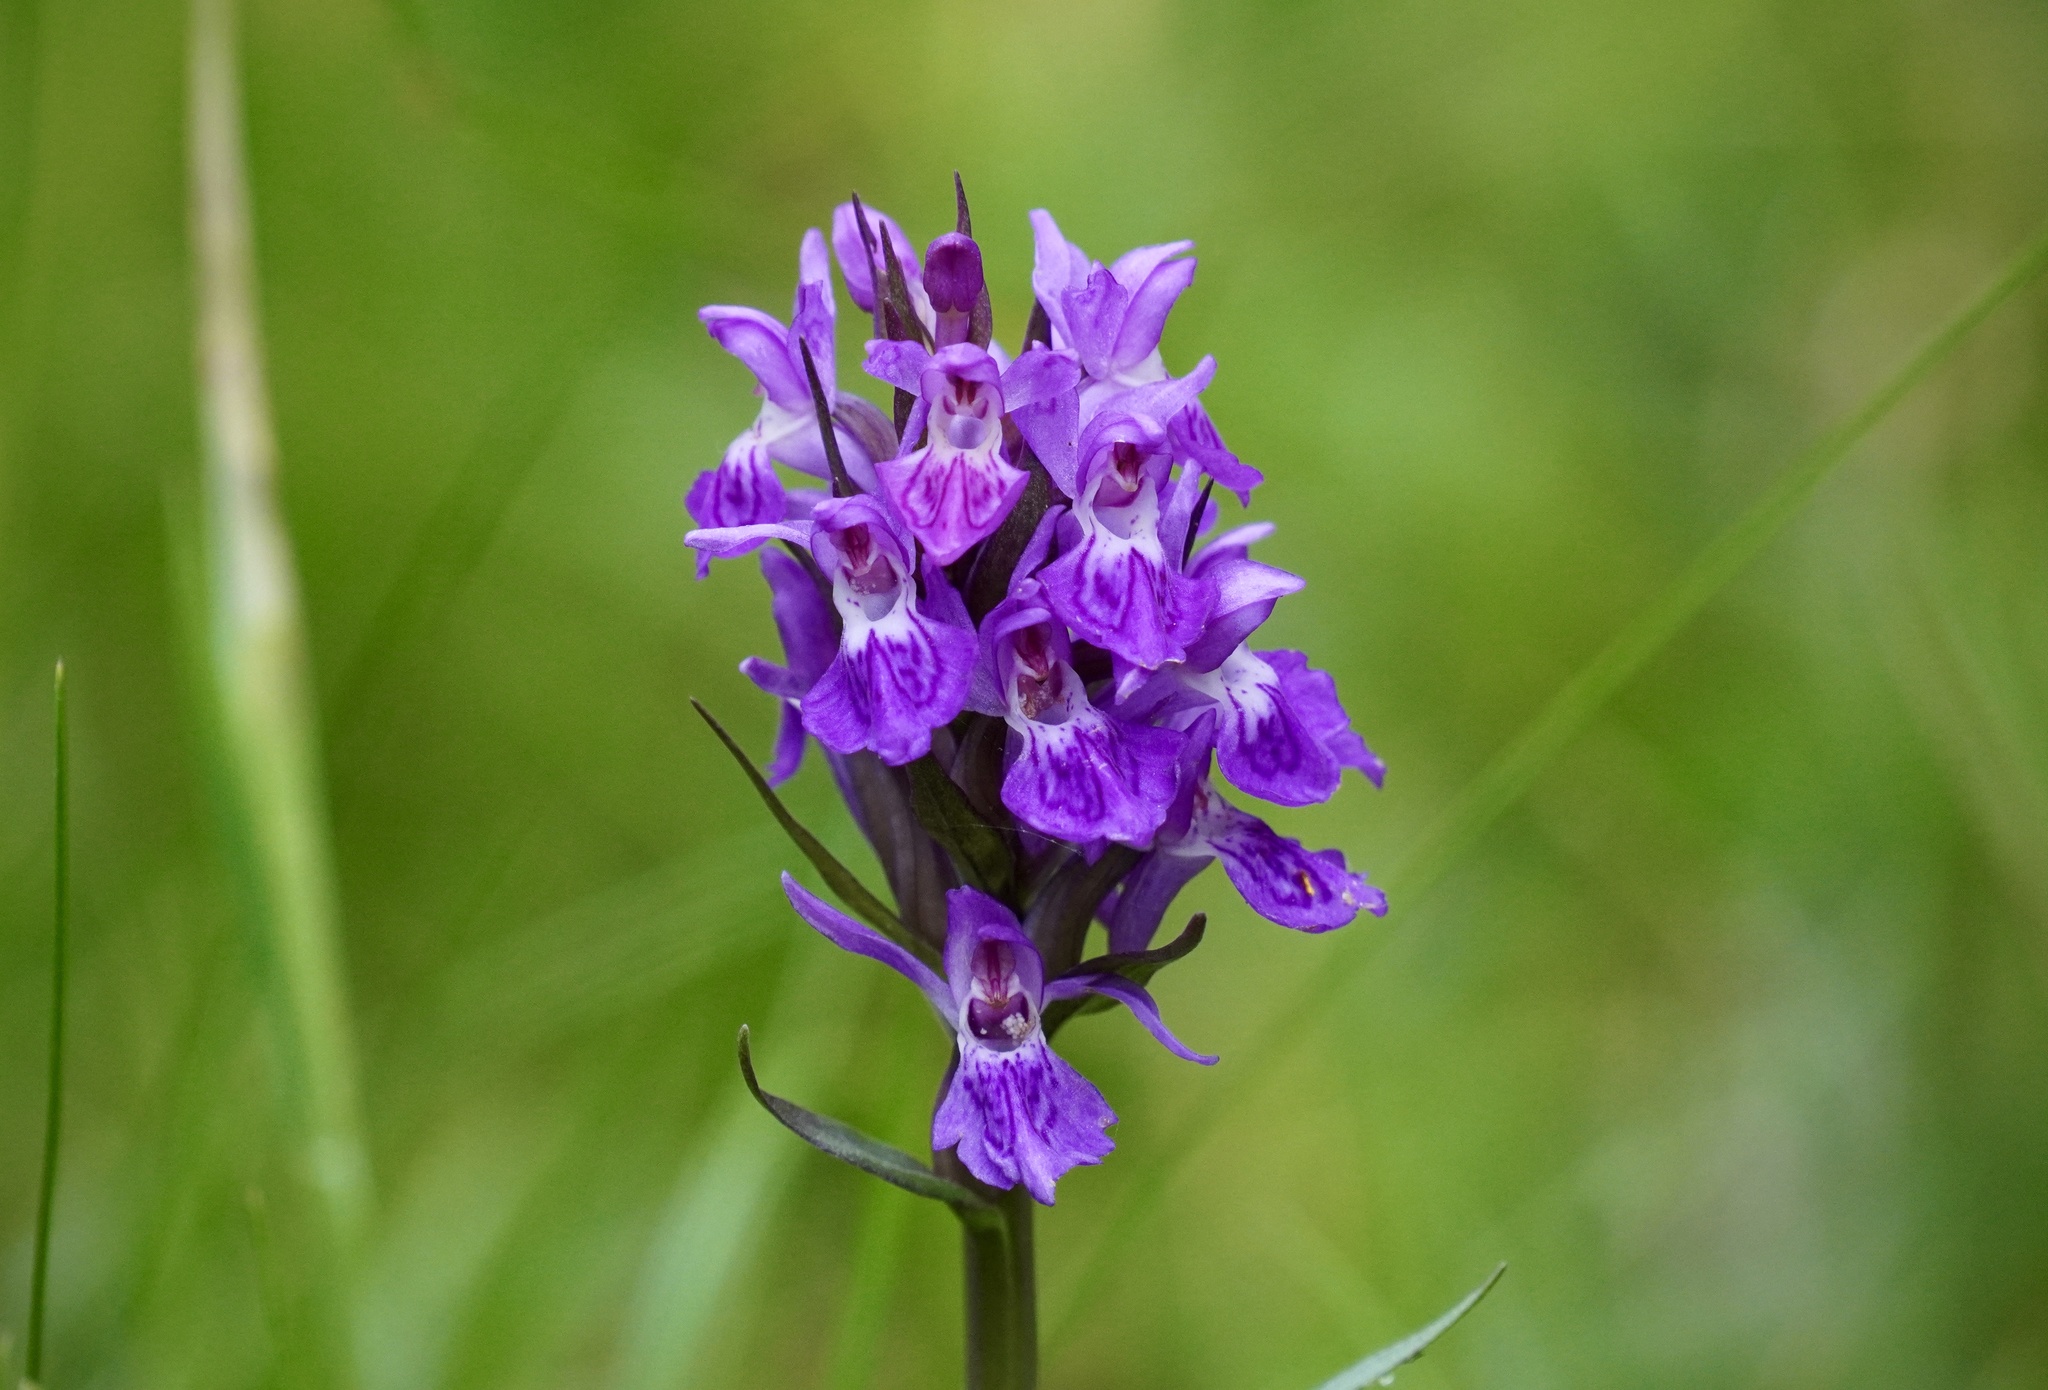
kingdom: Plantae
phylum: Tracheophyta
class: Liliopsida
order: Asparagales
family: Orchidaceae
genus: Dactylorhiza
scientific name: Dactylorhiza majalis
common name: Marsh orchid
